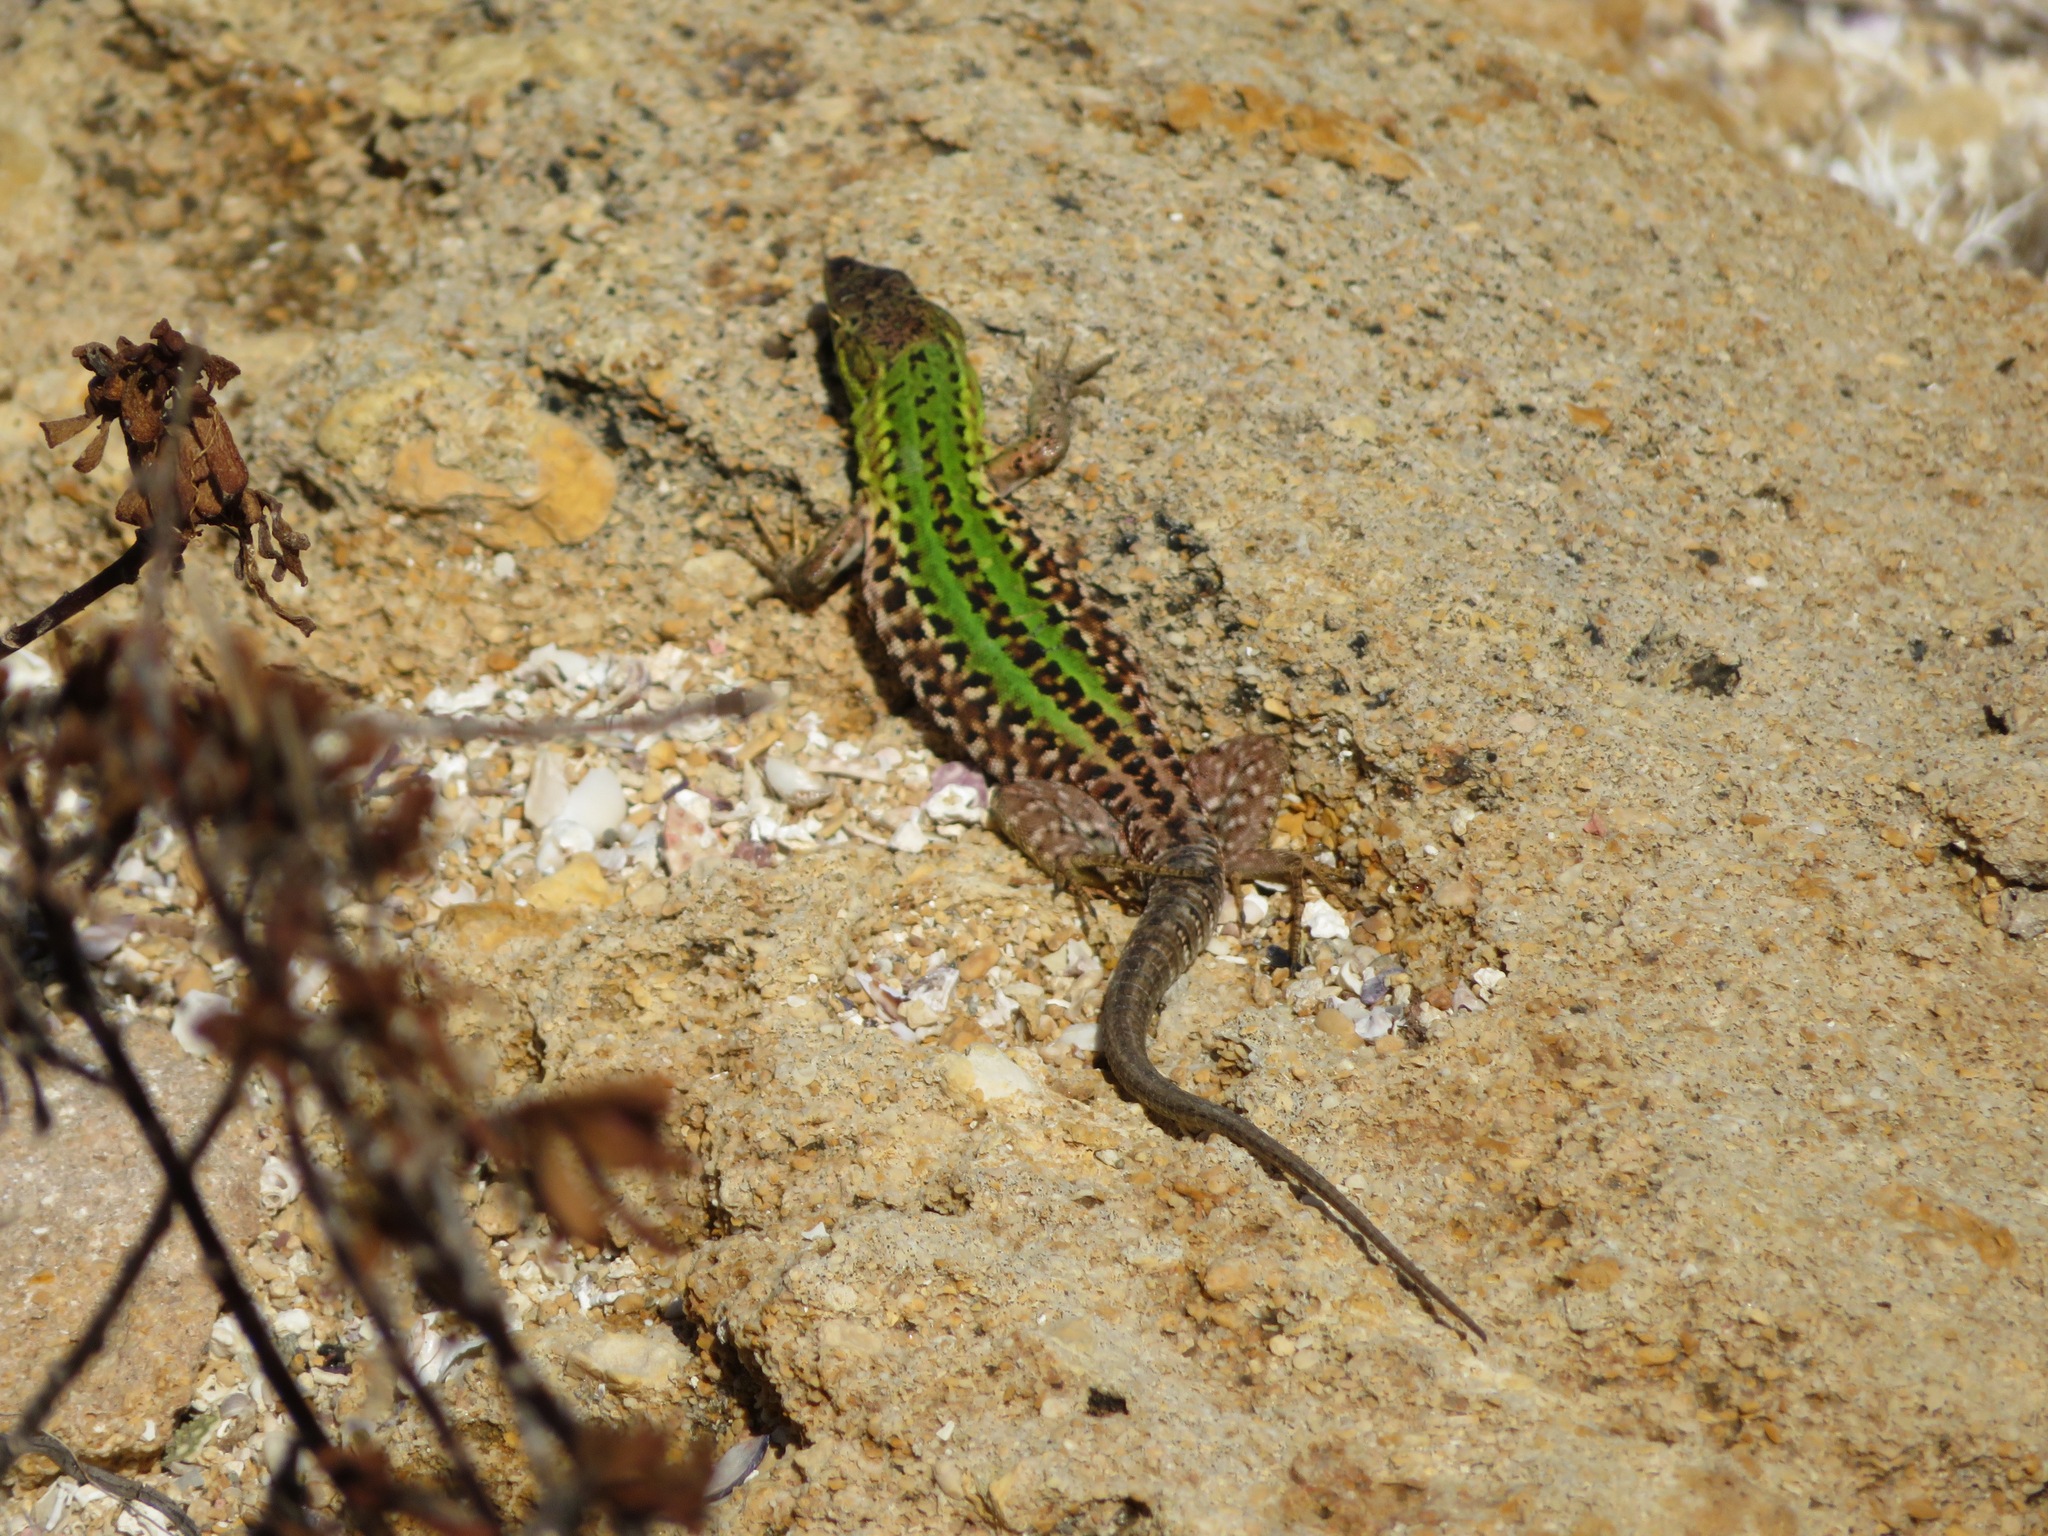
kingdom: Animalia
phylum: Chordata
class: Squamata
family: Lacertidae
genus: Podarcis
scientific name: Podarcis siculus
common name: Italian wall lizard
